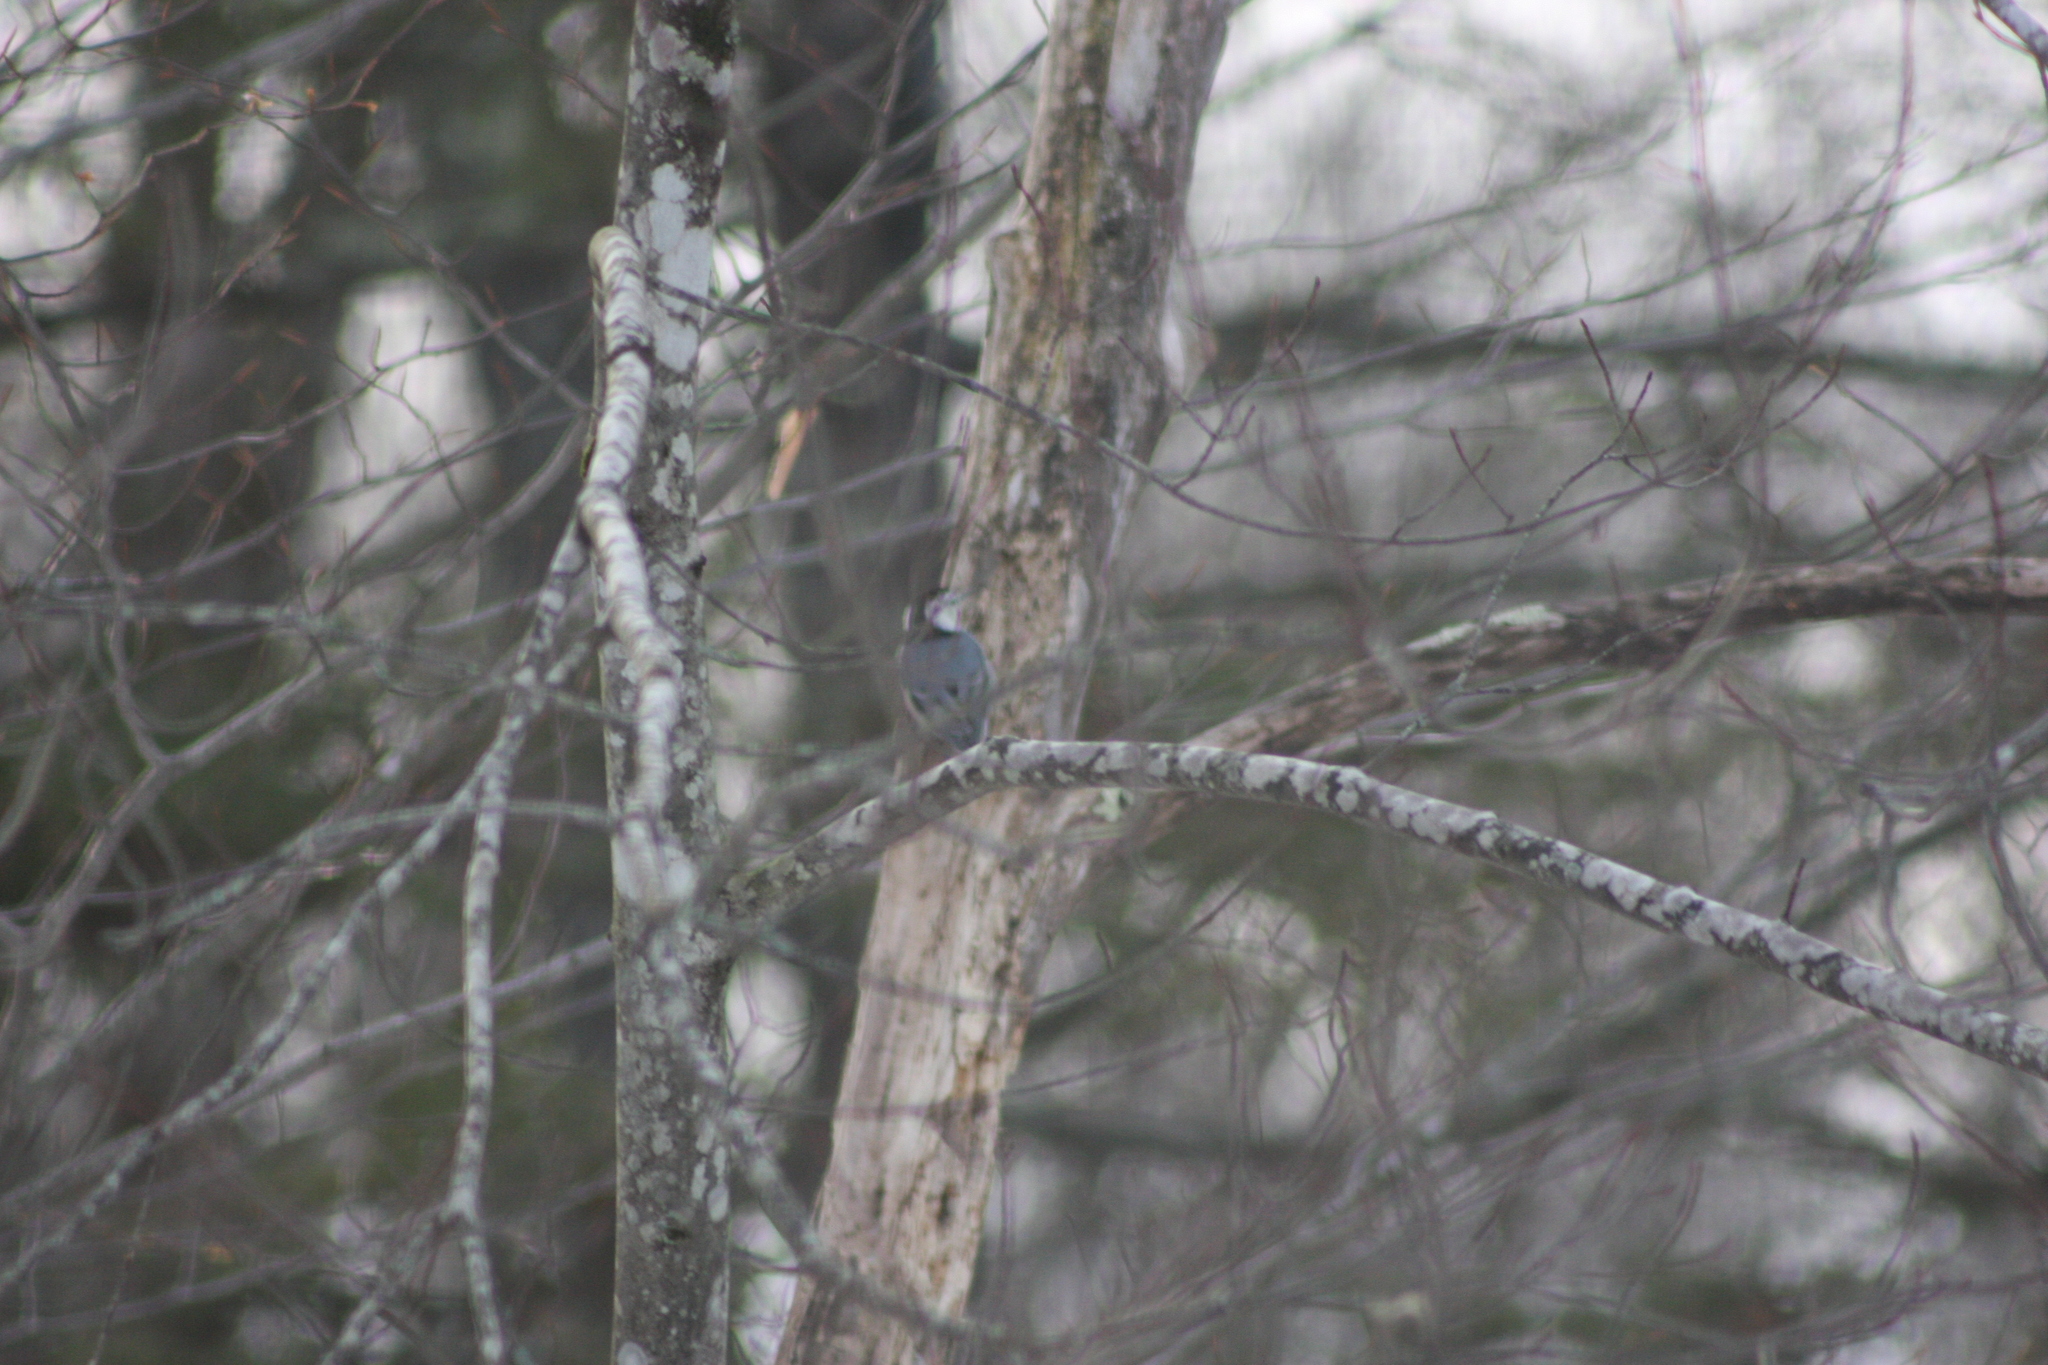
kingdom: Animalia
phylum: Chordata
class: Aves
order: Passeriformes
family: Sittidae
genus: Sitta
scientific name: Sitta carolinensis
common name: White-breasted nuthatch
